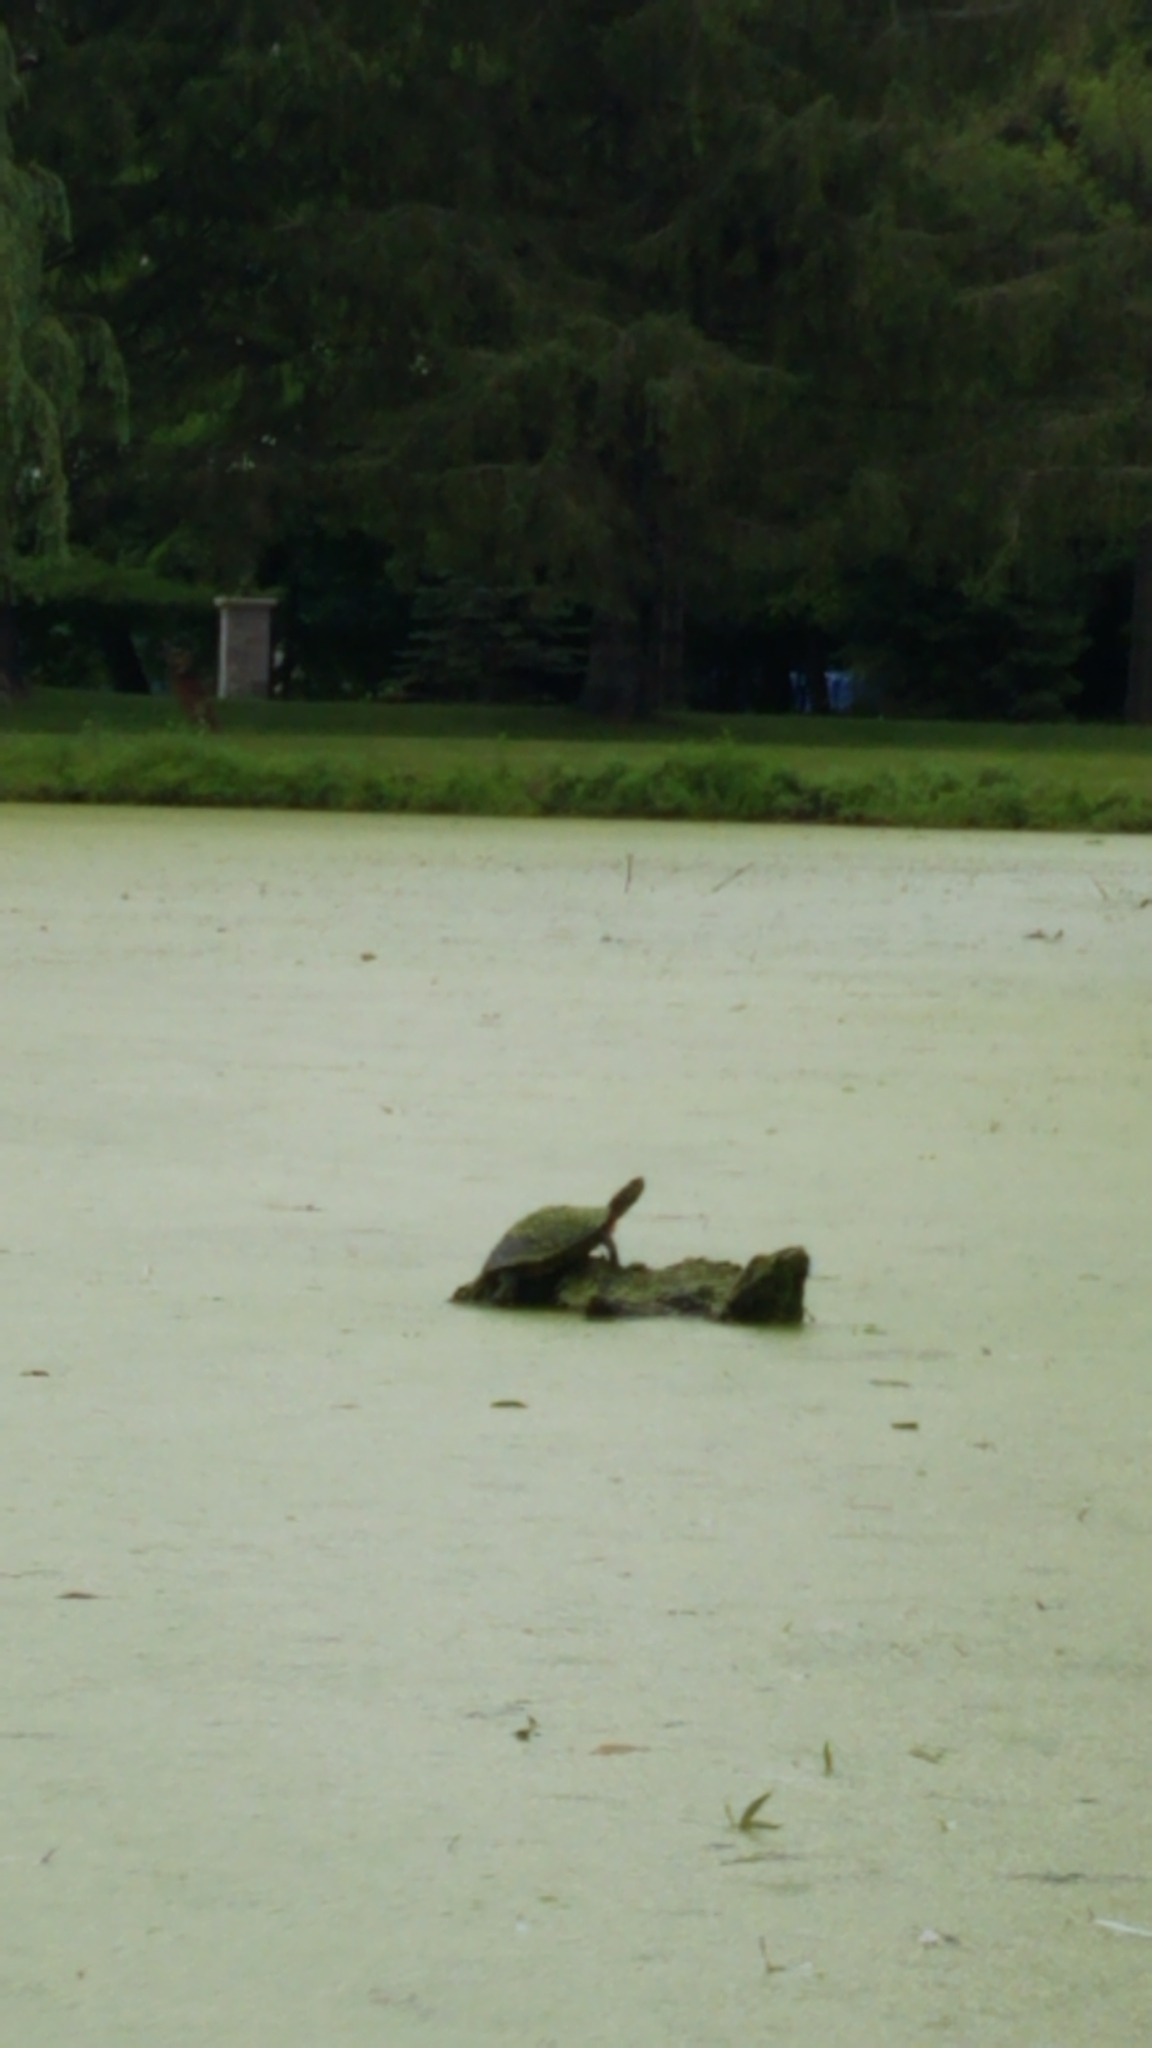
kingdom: Animalia
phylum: Chordata
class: Testudines
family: Emydidae
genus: Chrysemys
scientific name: Chrysemys picta
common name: Painted turtle
